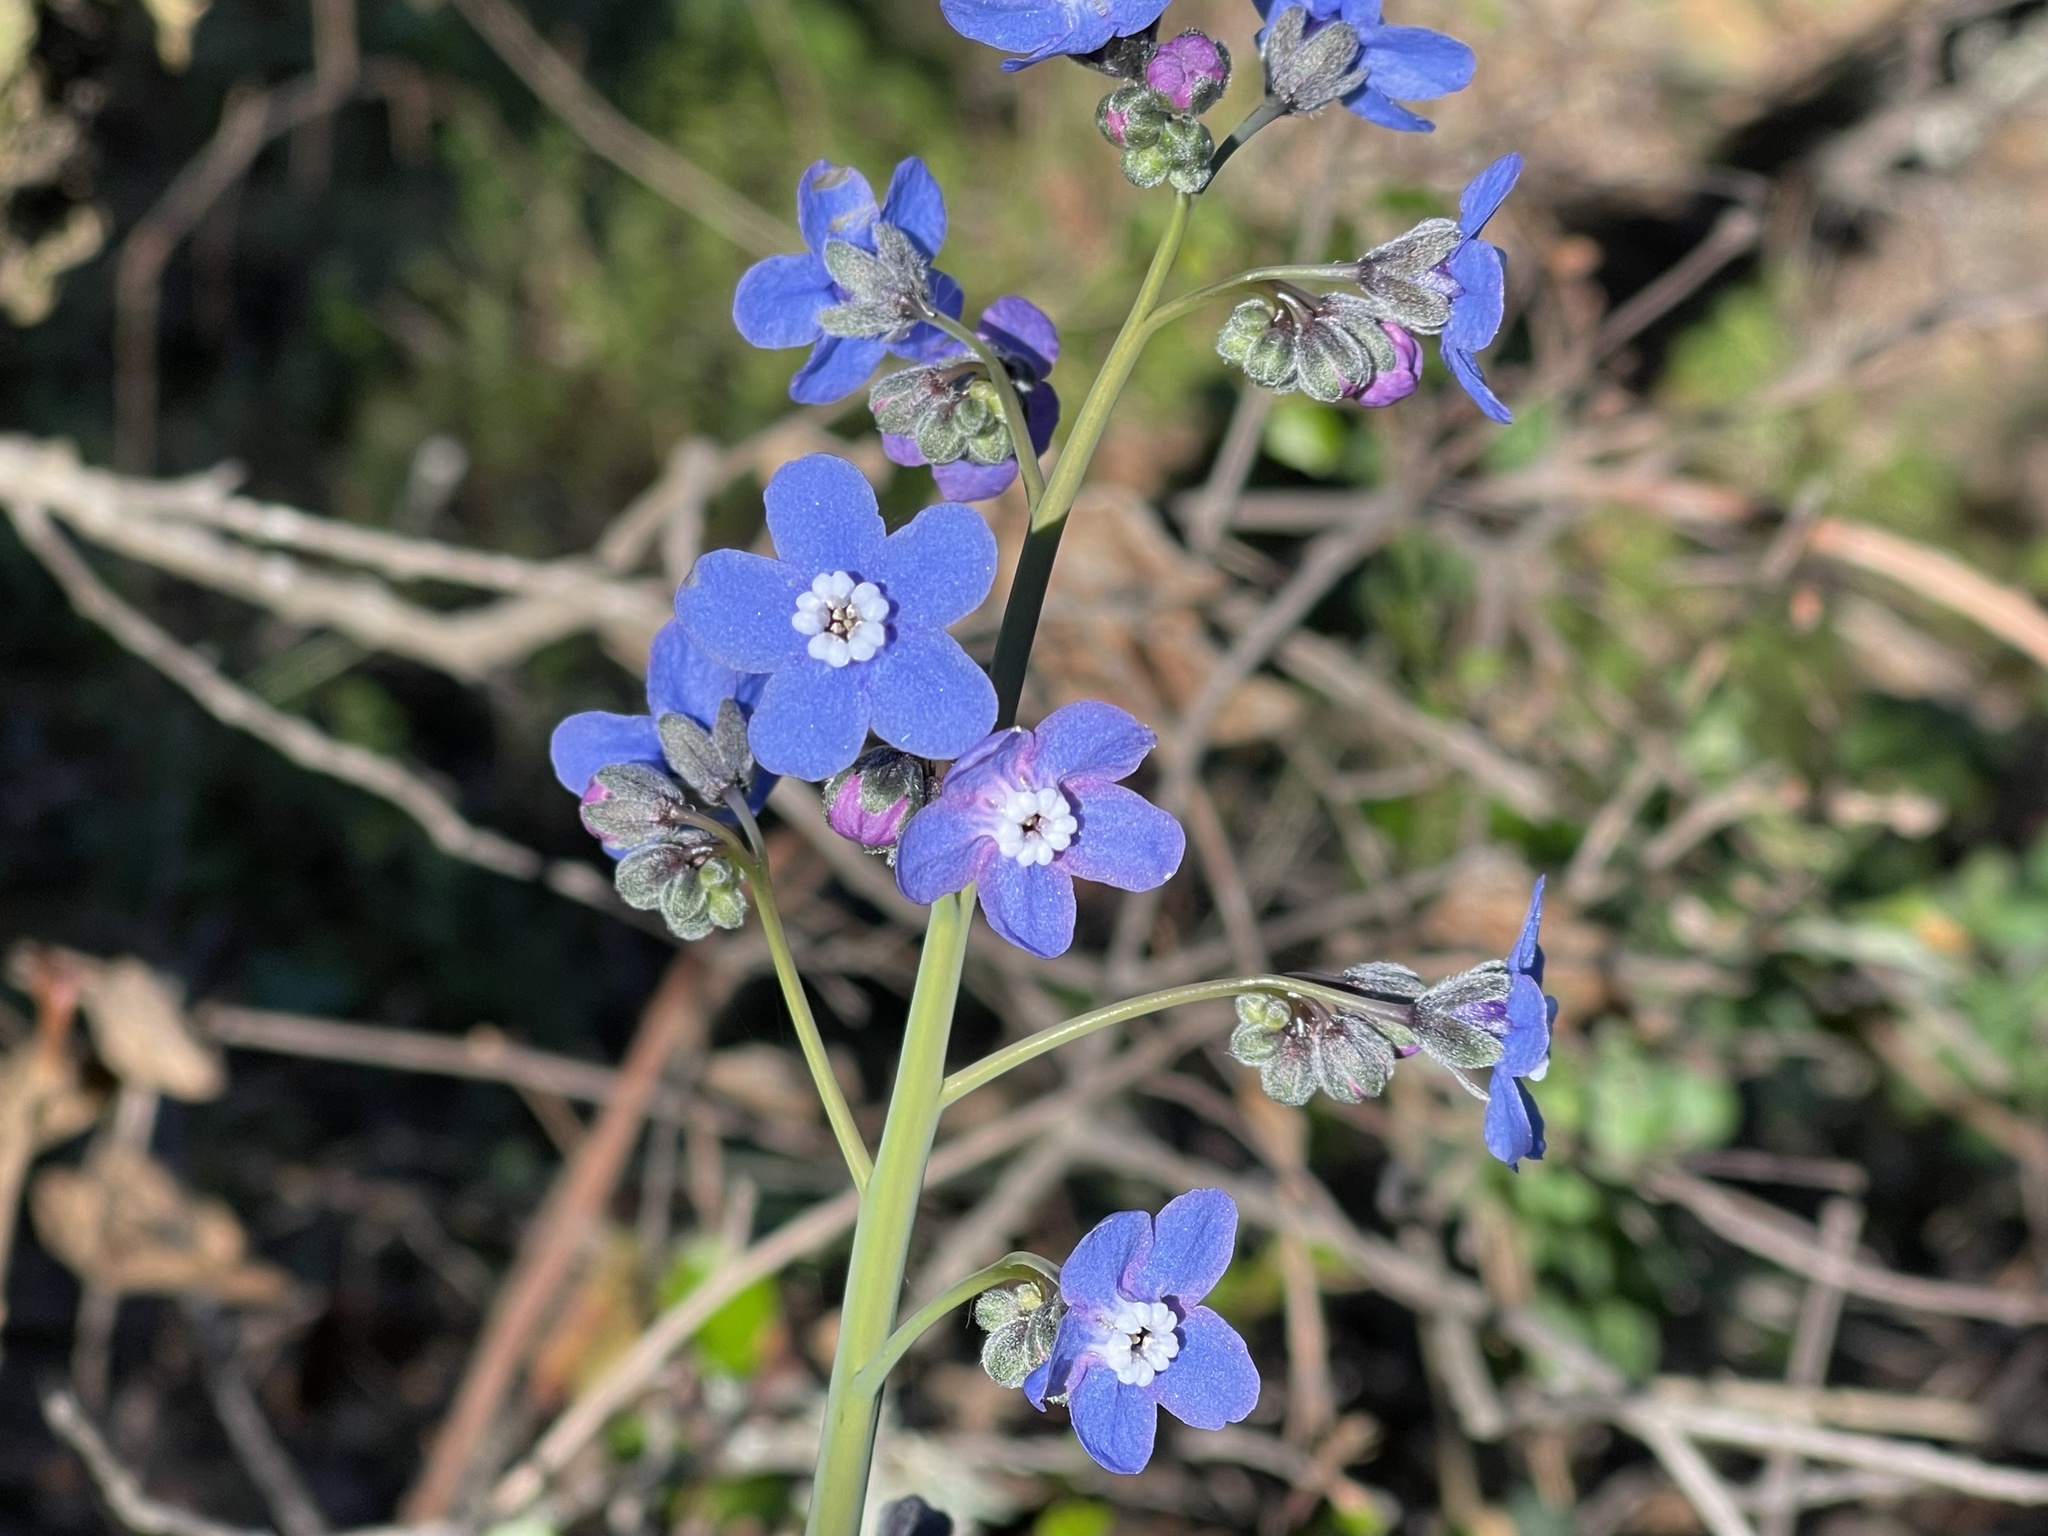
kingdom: Plantae
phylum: Tracheophyta
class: Magnoliopsida
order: Boraginales
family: Boraginaceae
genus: Adelinia
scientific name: Adelinia grande
